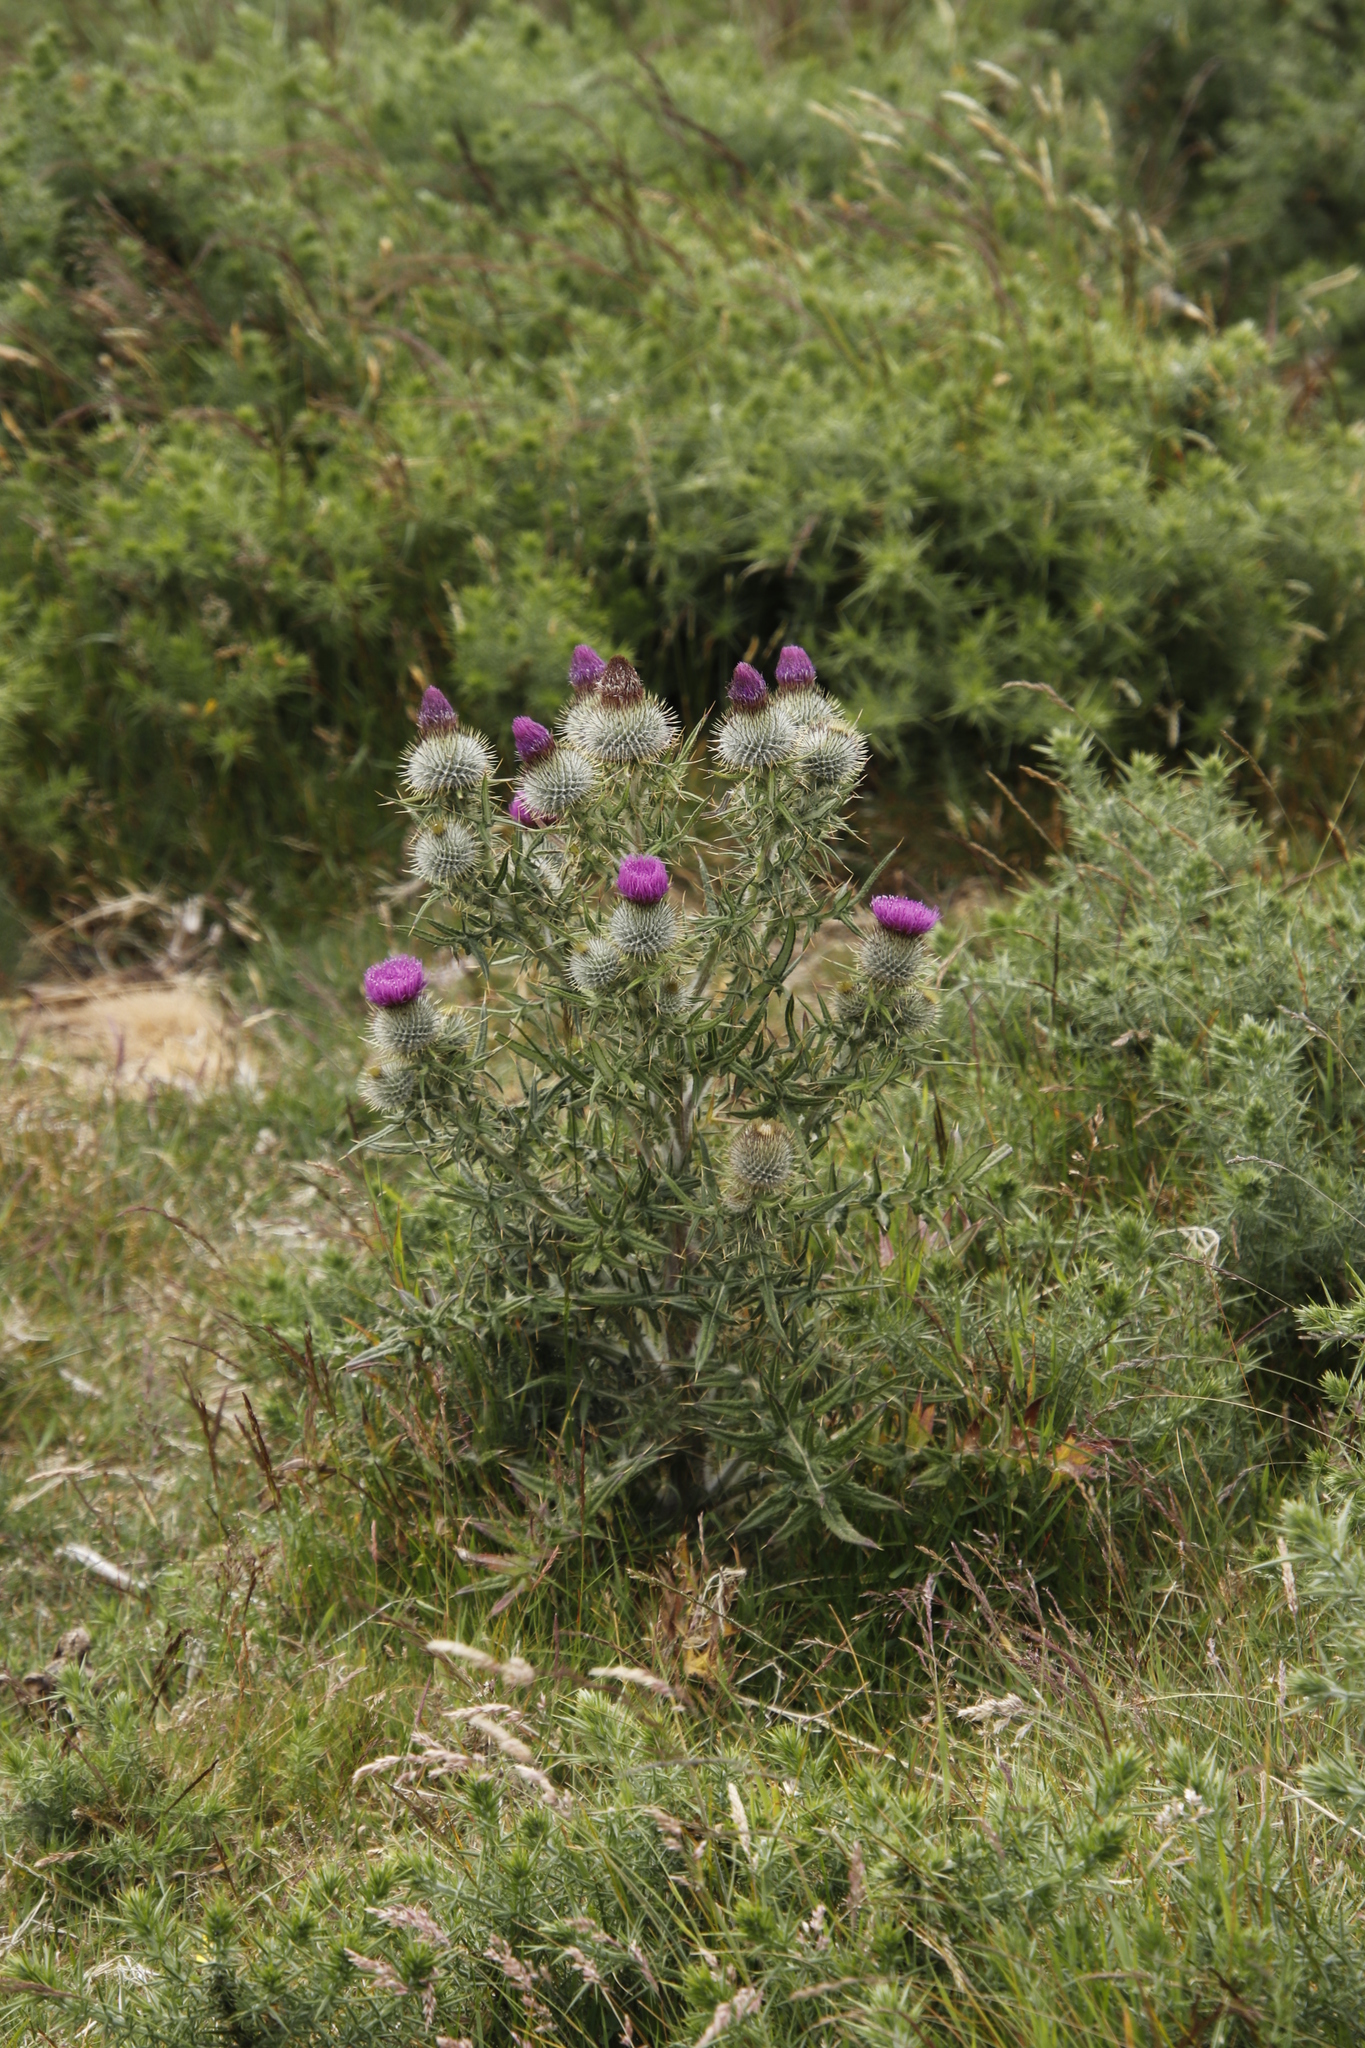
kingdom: Plantae
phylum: Tracheophyta
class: Magnoliopsida
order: Asterales
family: Asteraceae
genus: Cirsium
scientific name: Cirsium vulgare
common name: Bull thistle
